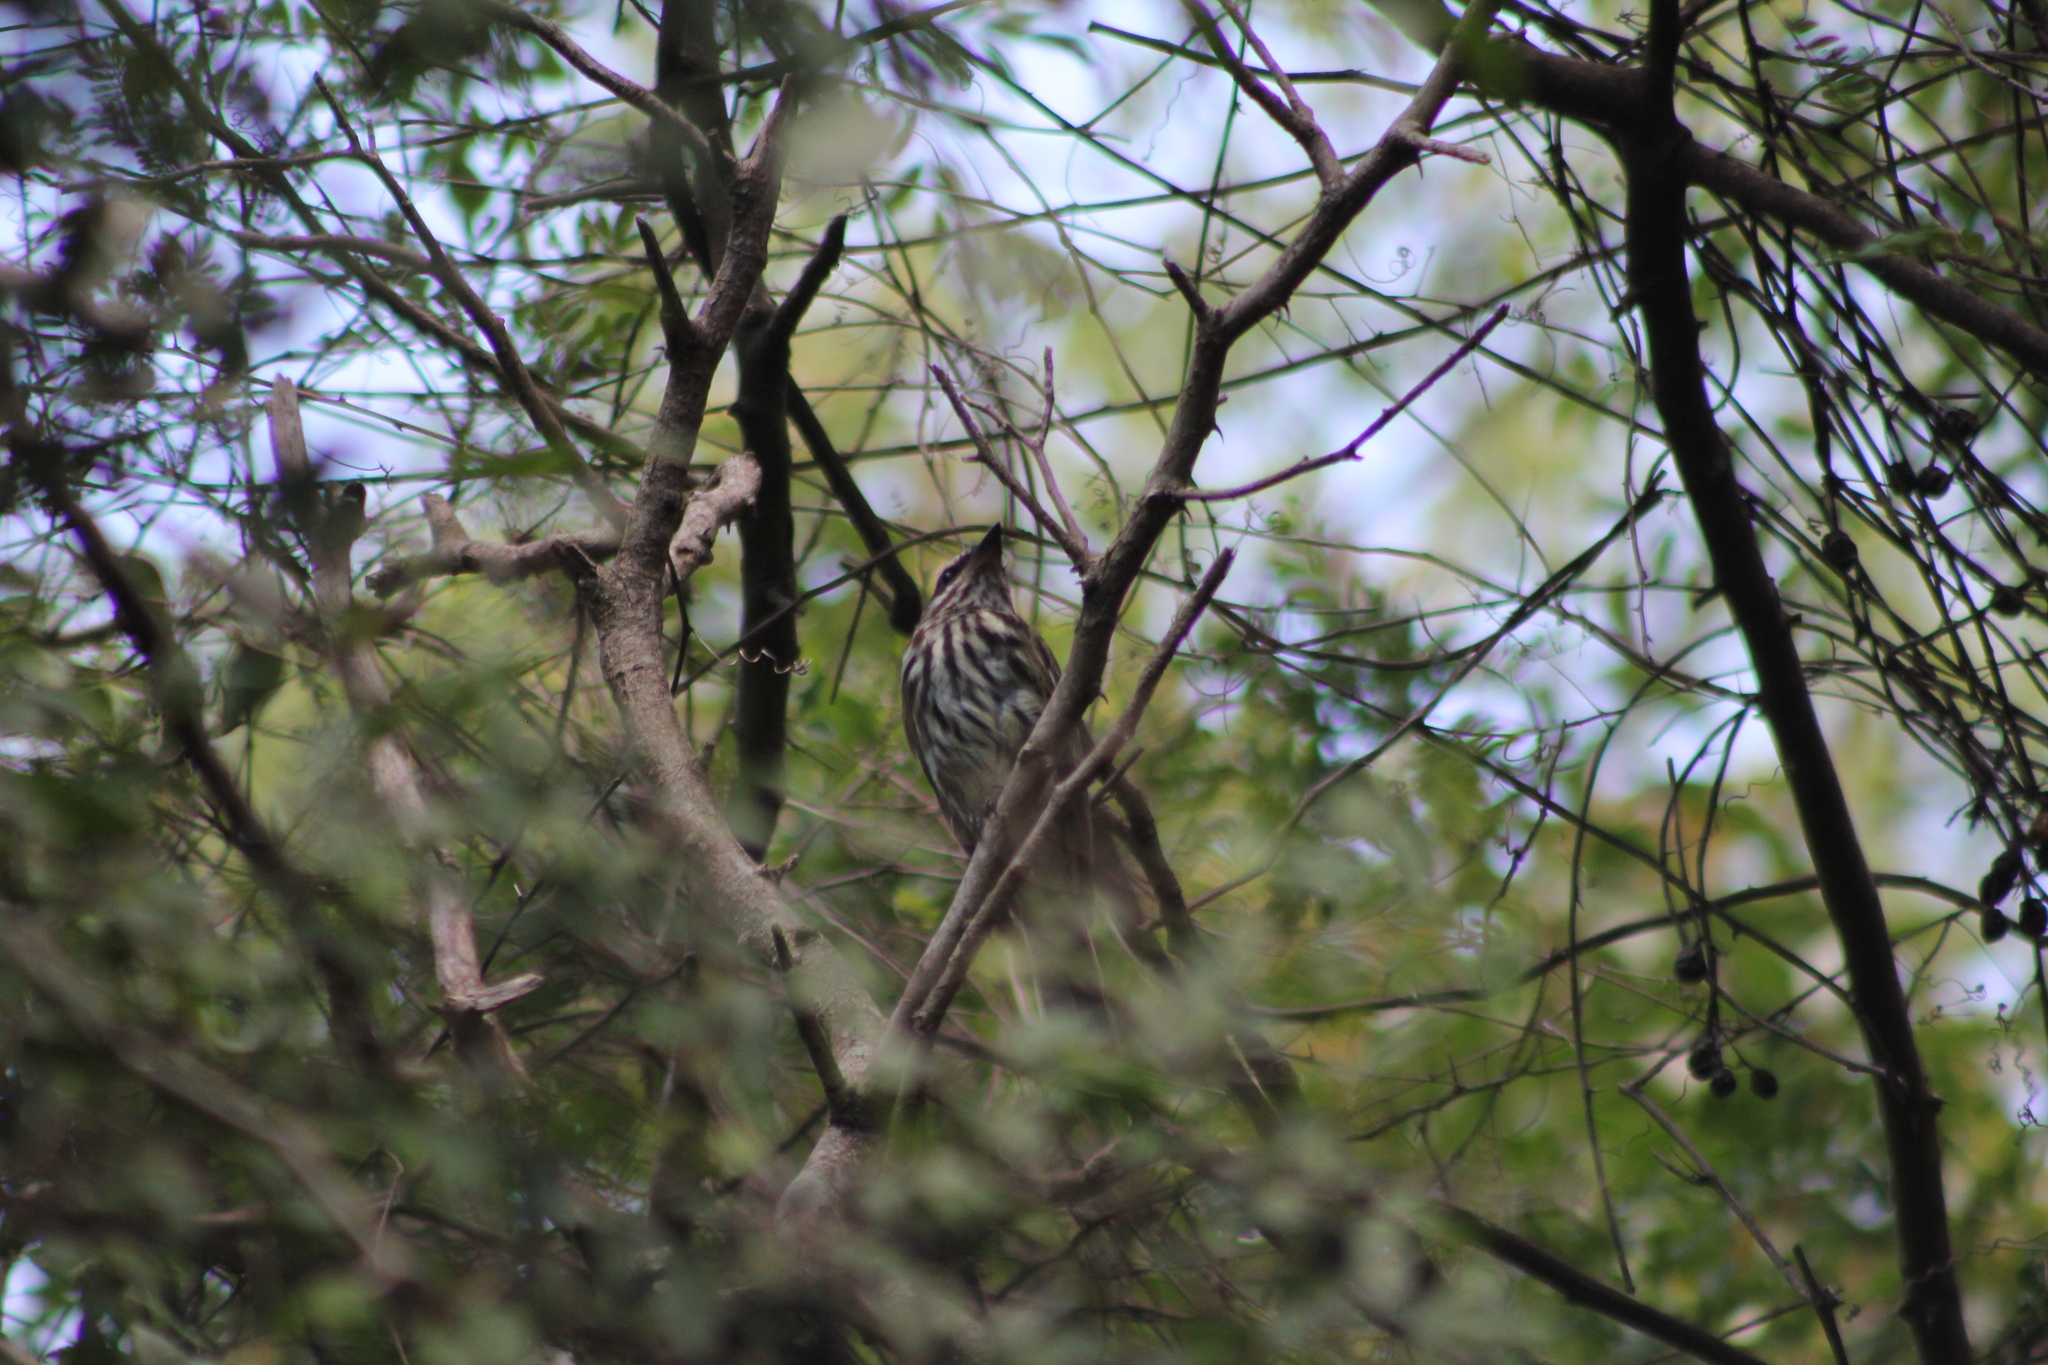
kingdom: Animalia
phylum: Chordata
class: Aves
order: Passeriformes
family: Tyrannidae
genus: Myiodynastes
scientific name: Myiodynastes maculatus
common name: Streaked flycatcher
